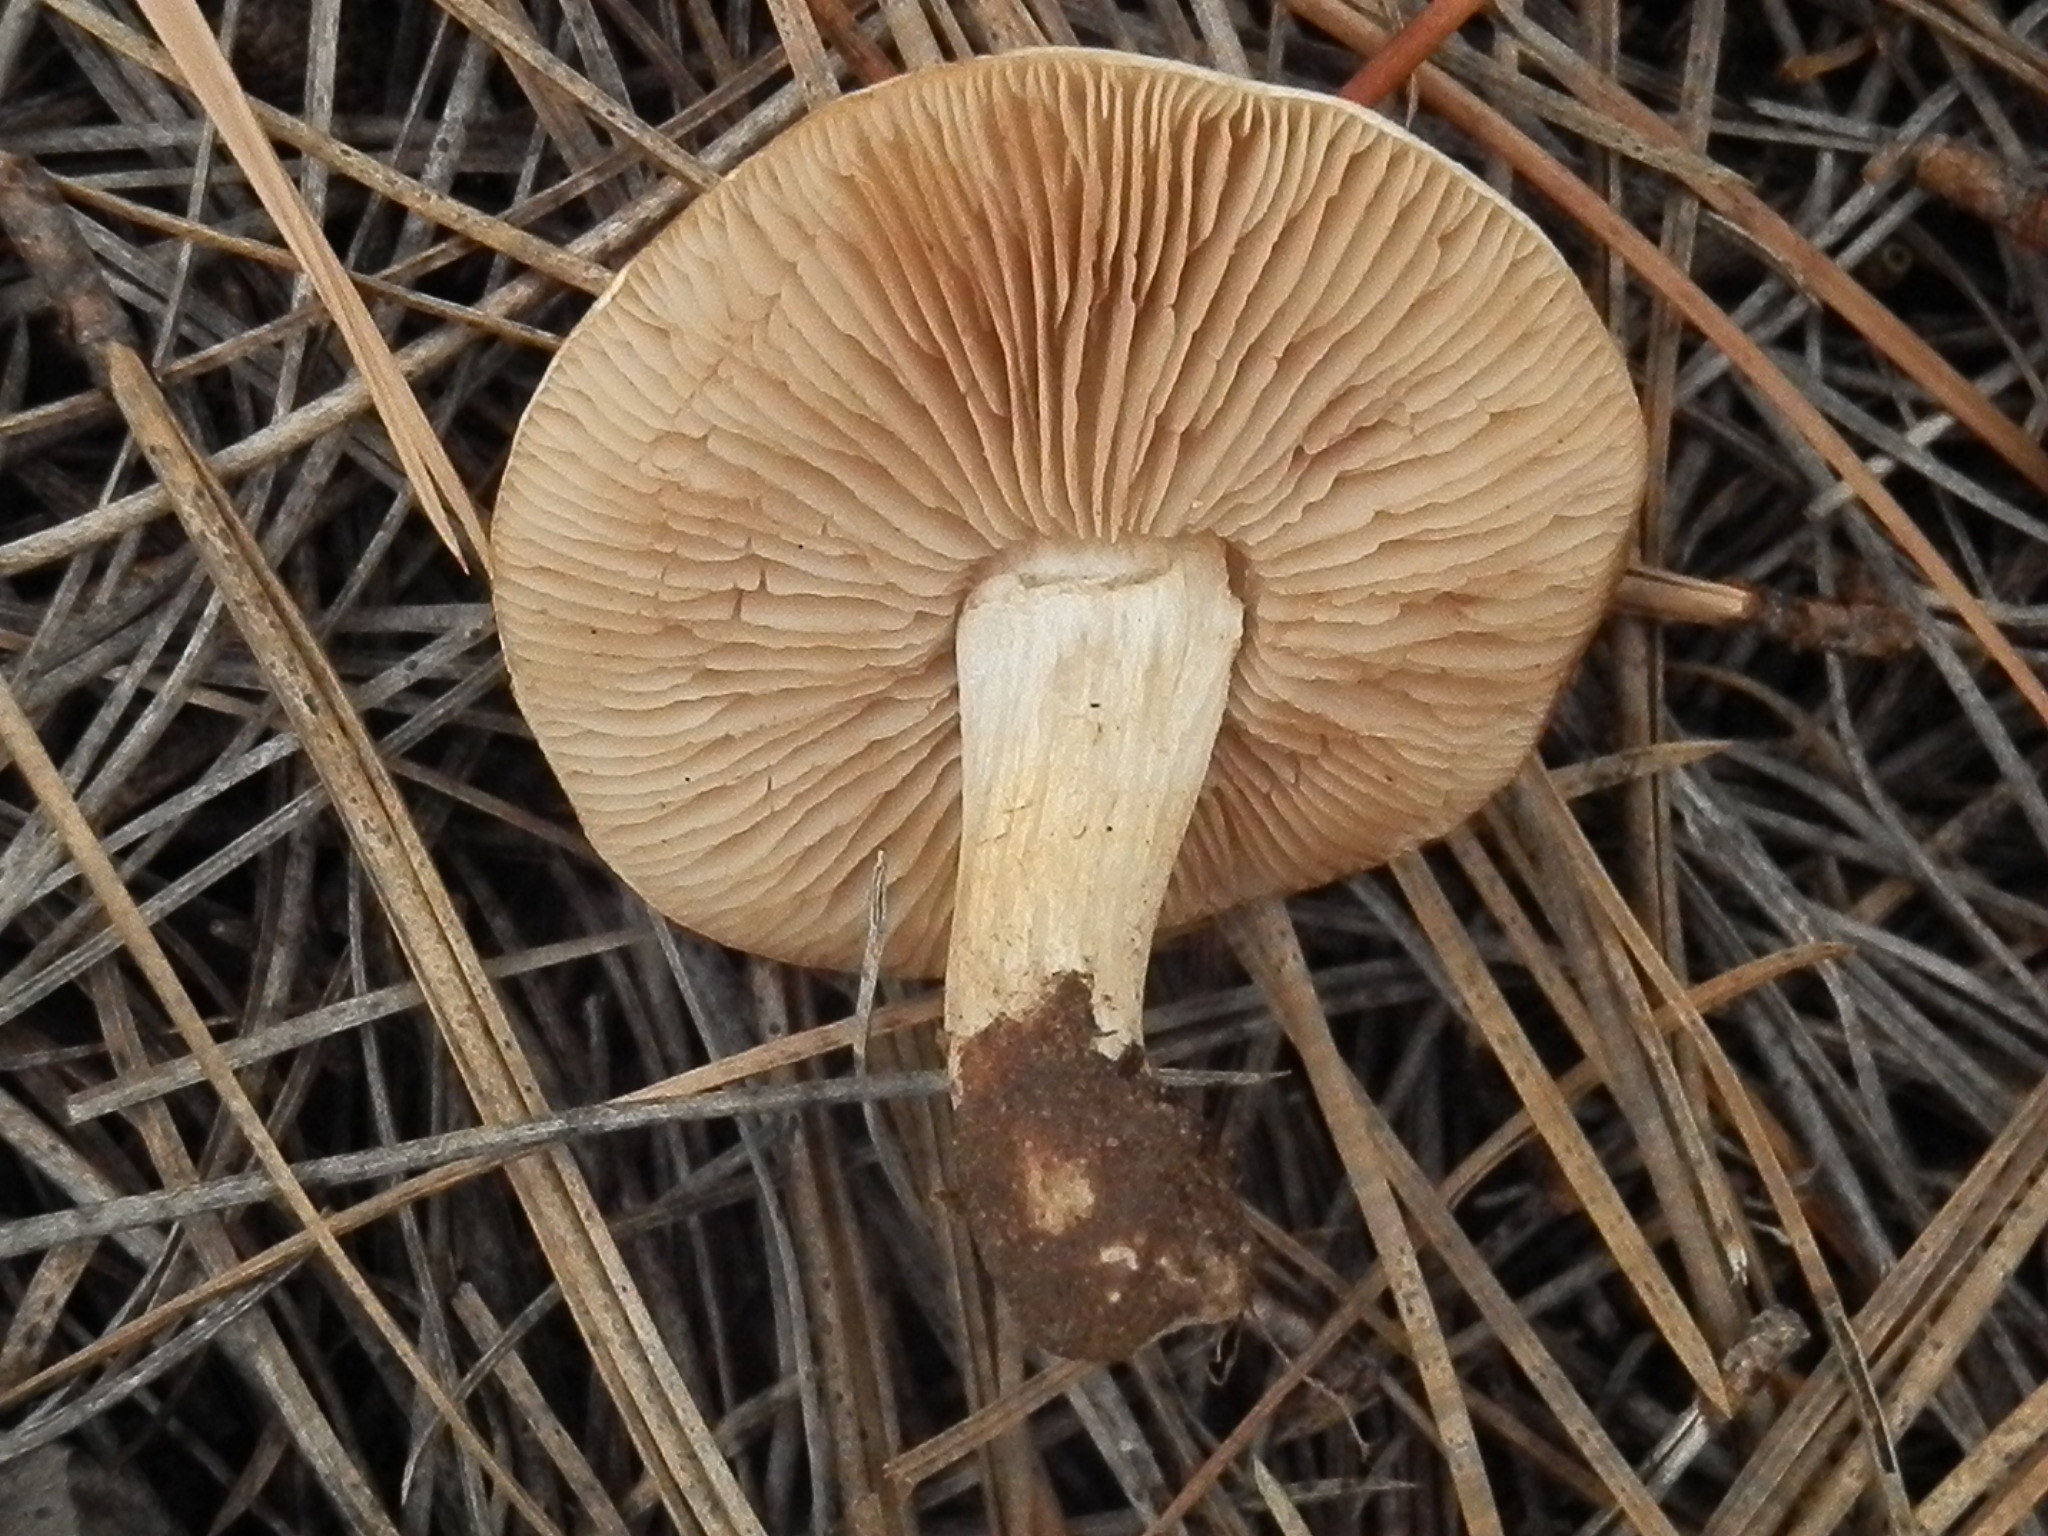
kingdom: Fungi
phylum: Basidiomycota
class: Agaricomycetes
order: Agaricales
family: Hymenogastraceae
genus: Hebeloma
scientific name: Hebeloma sordidum
